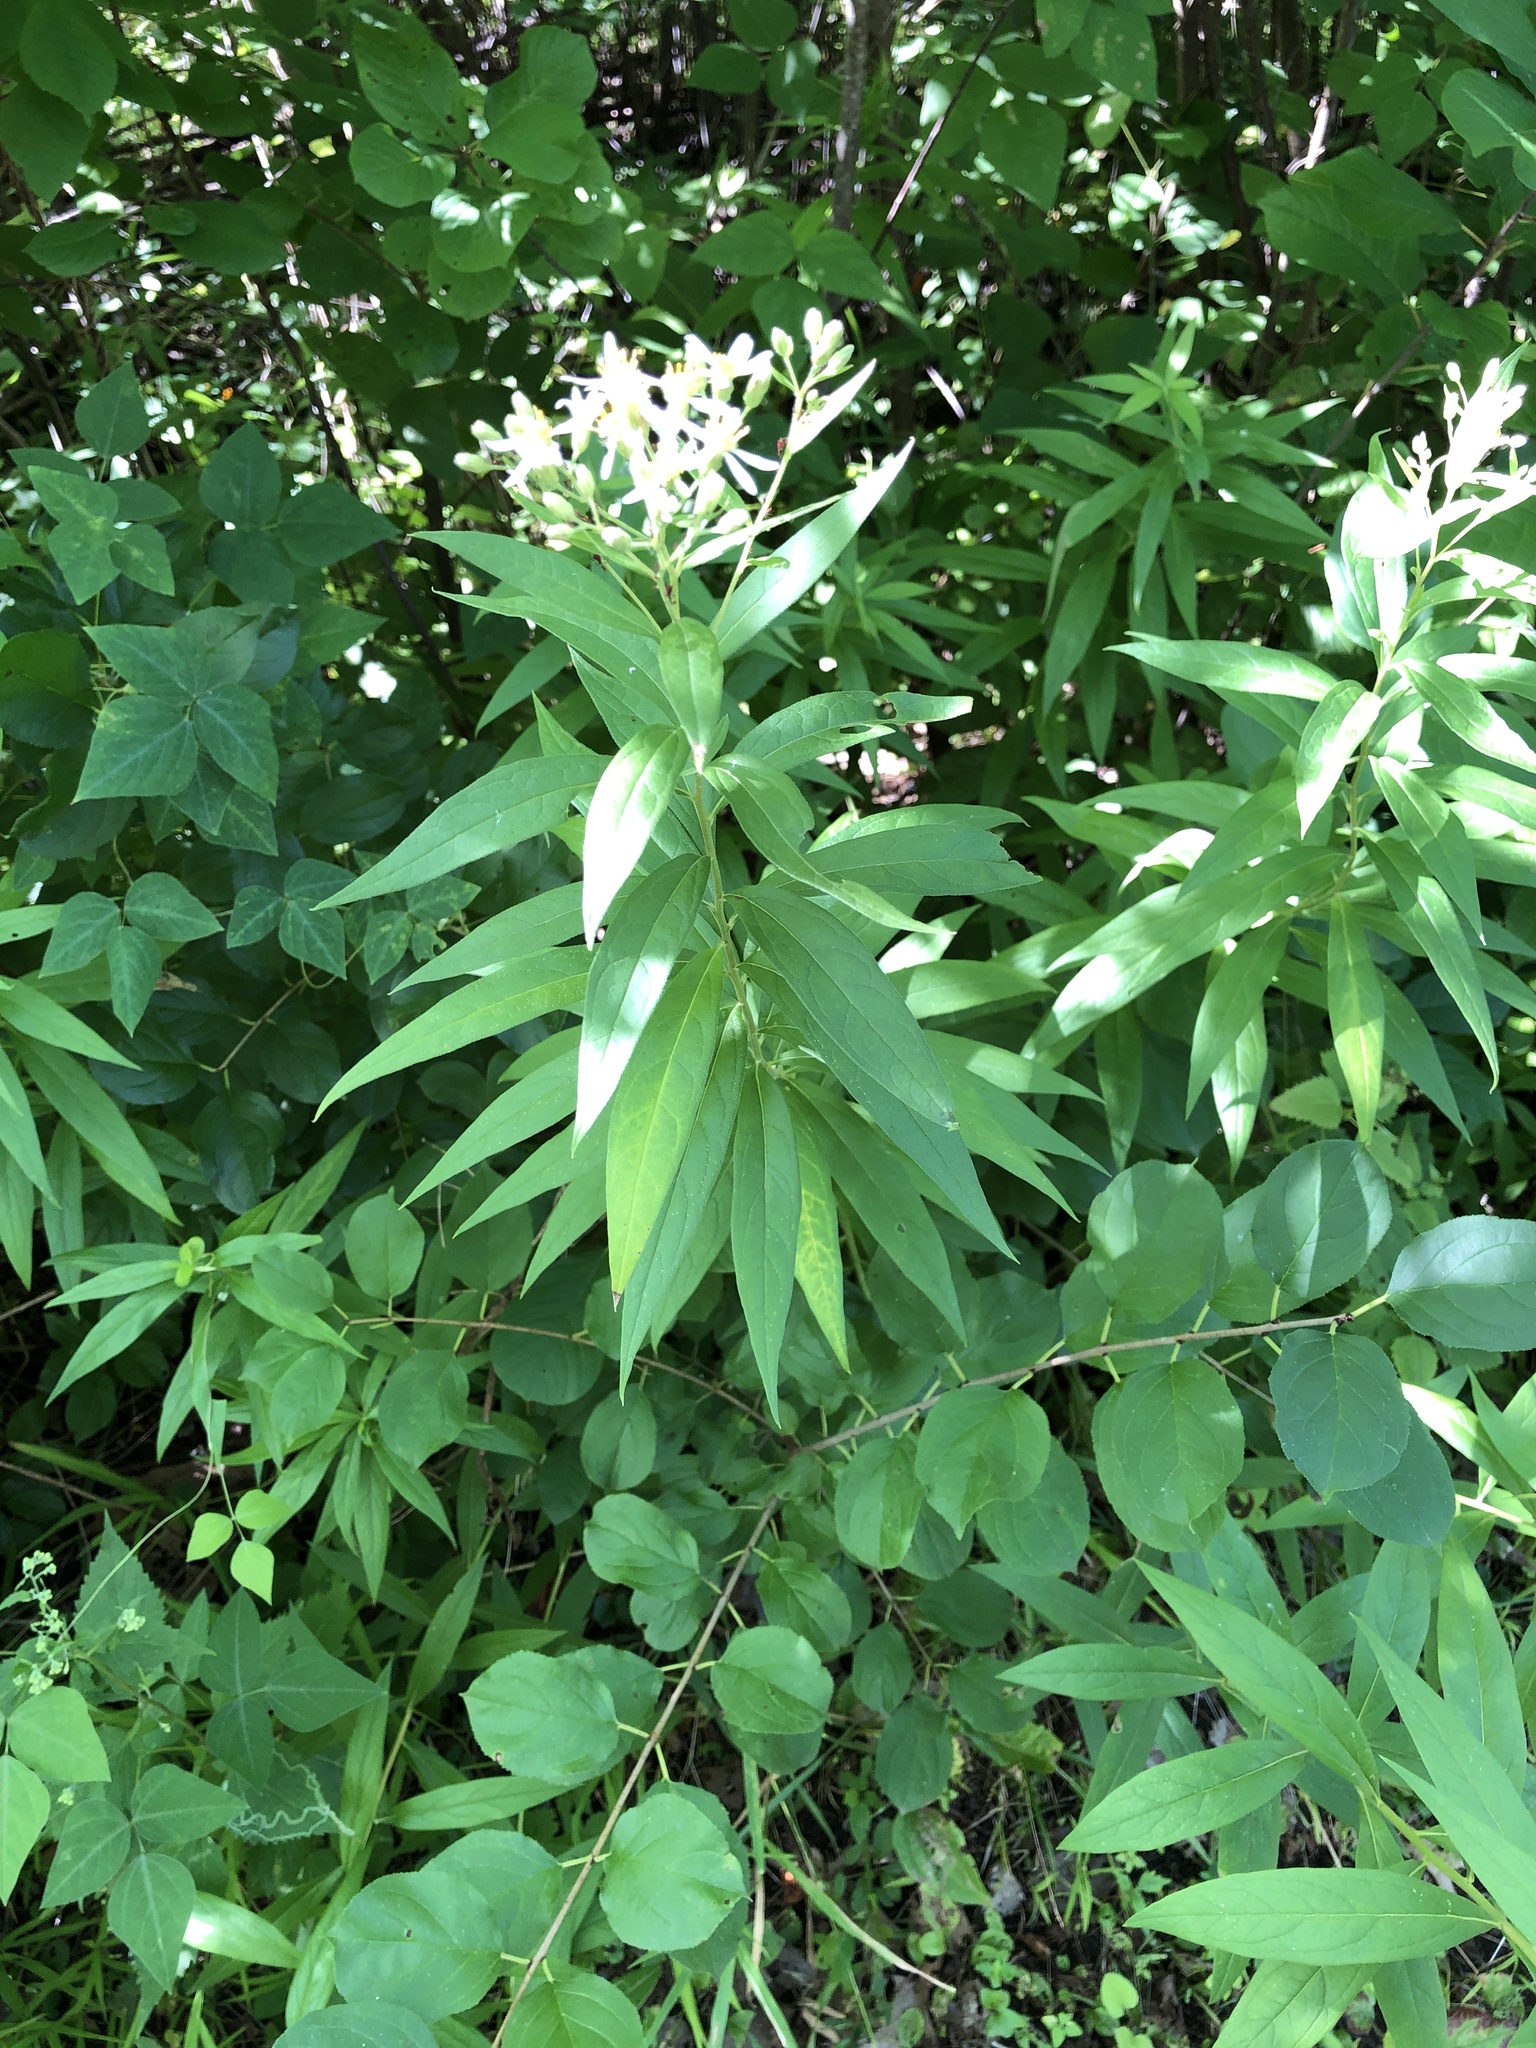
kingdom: Plantae
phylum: Tracheophyta
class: Magnoliopsida
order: Asterales
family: Asteraceae
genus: Doellingeria
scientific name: Doellingeria umbellata
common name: Flat-top white aster
